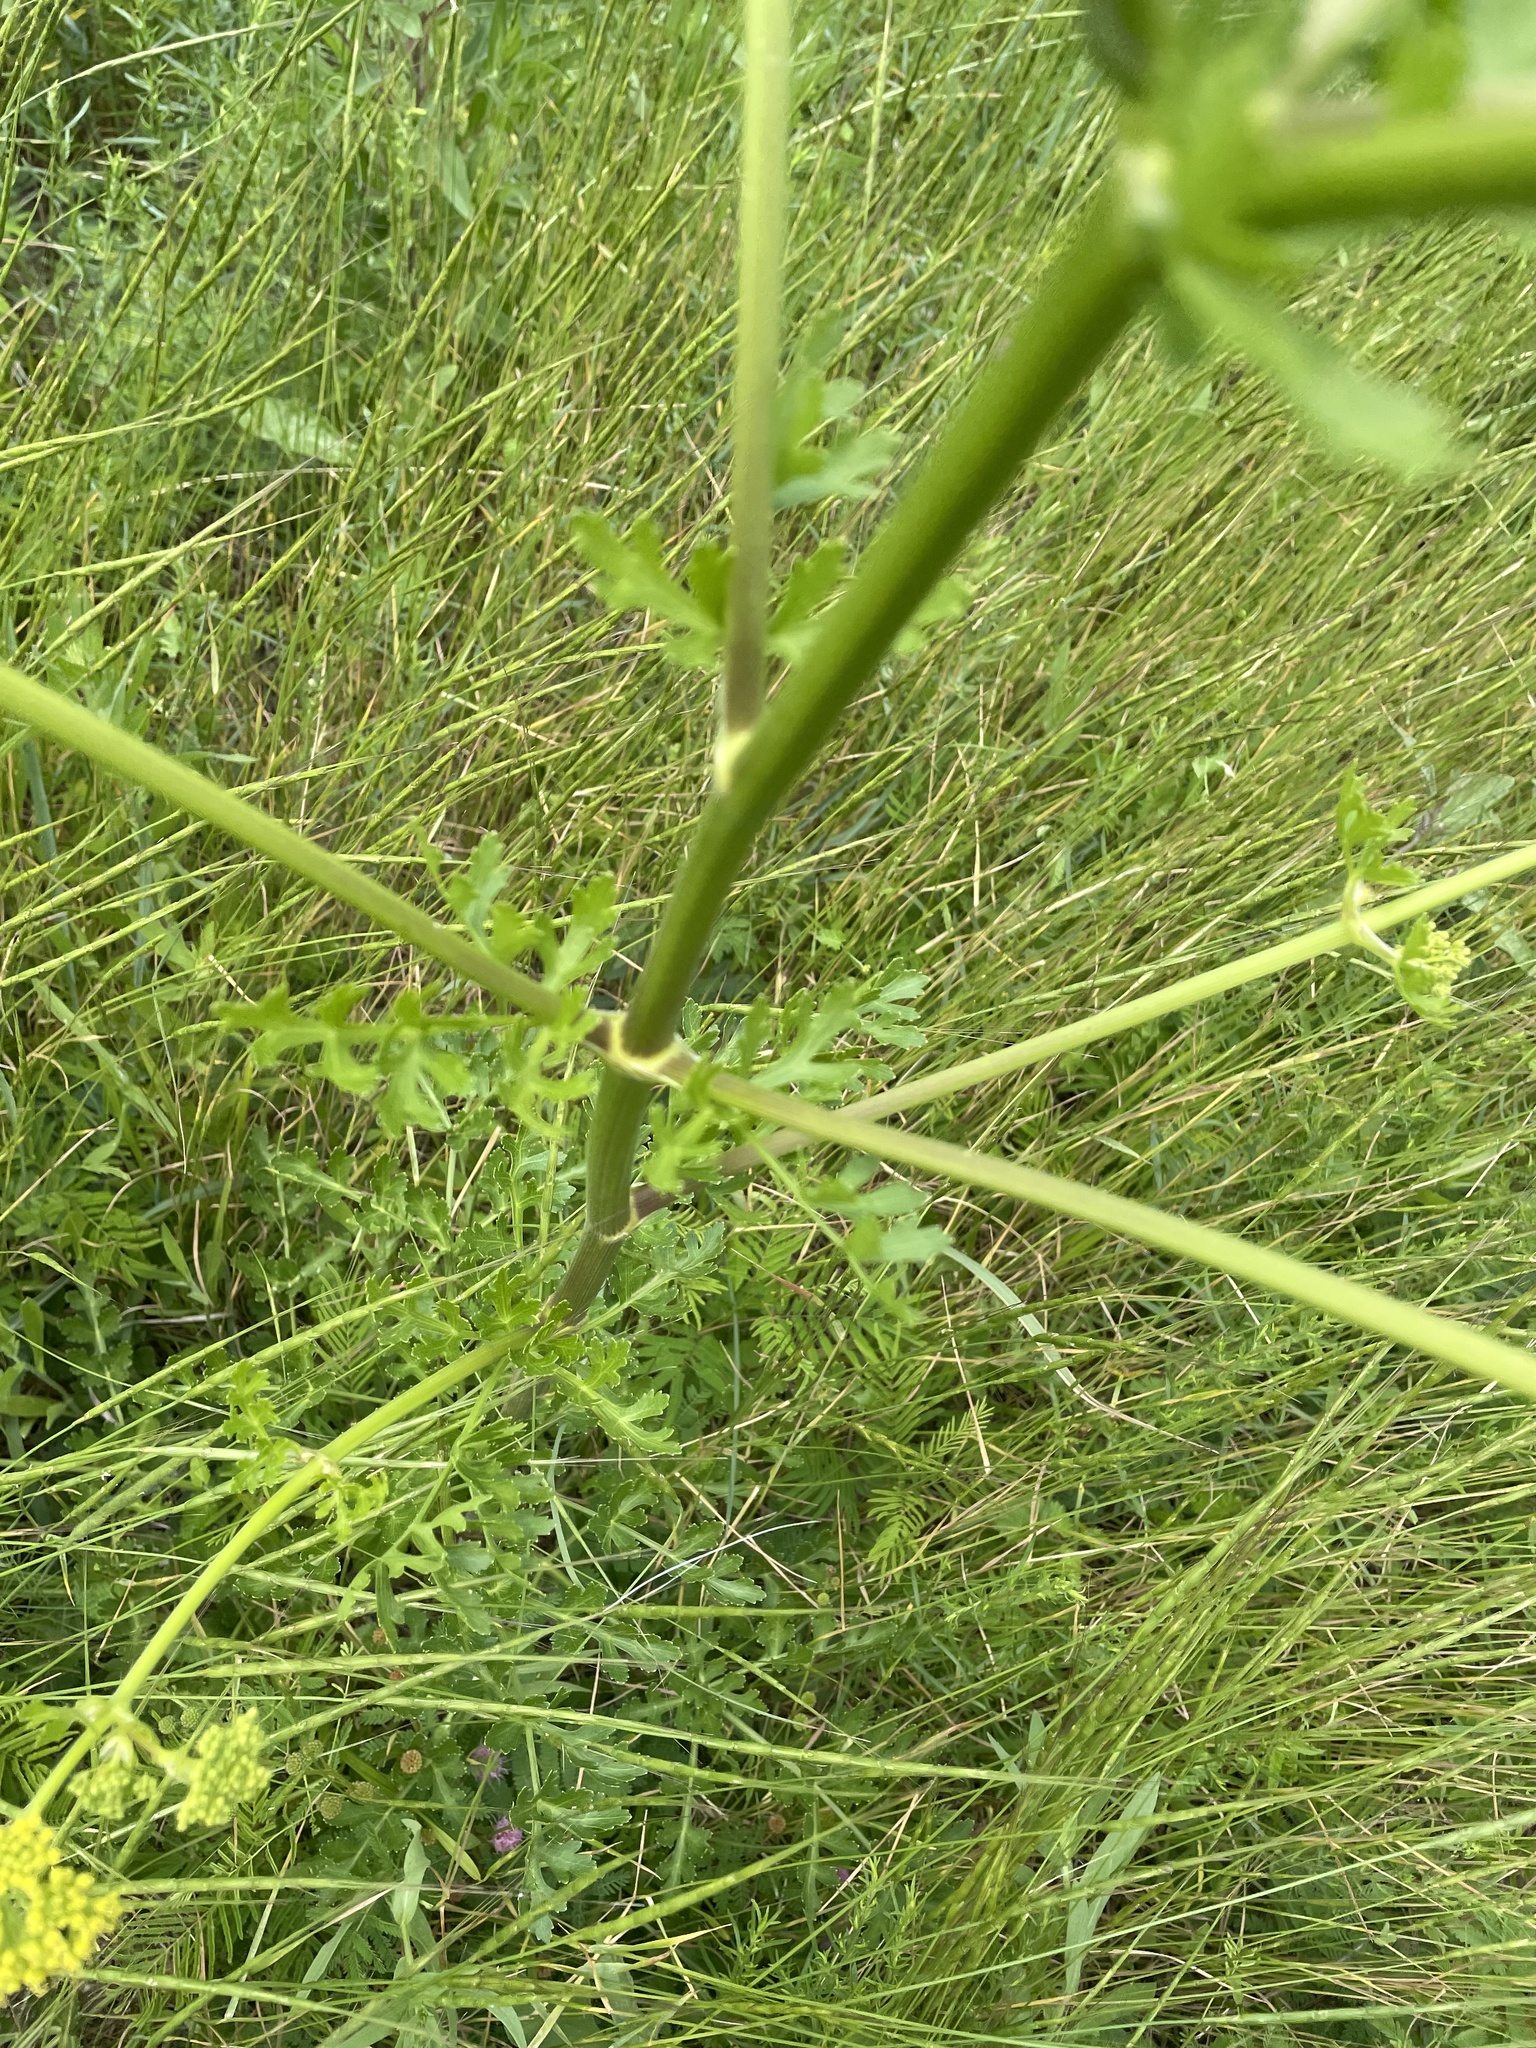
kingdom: Plantae
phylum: Tracheophyta
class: Magnoliopsida
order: Apiales
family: Apiaceae
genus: Polytaenia
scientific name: Polytaenia texana
